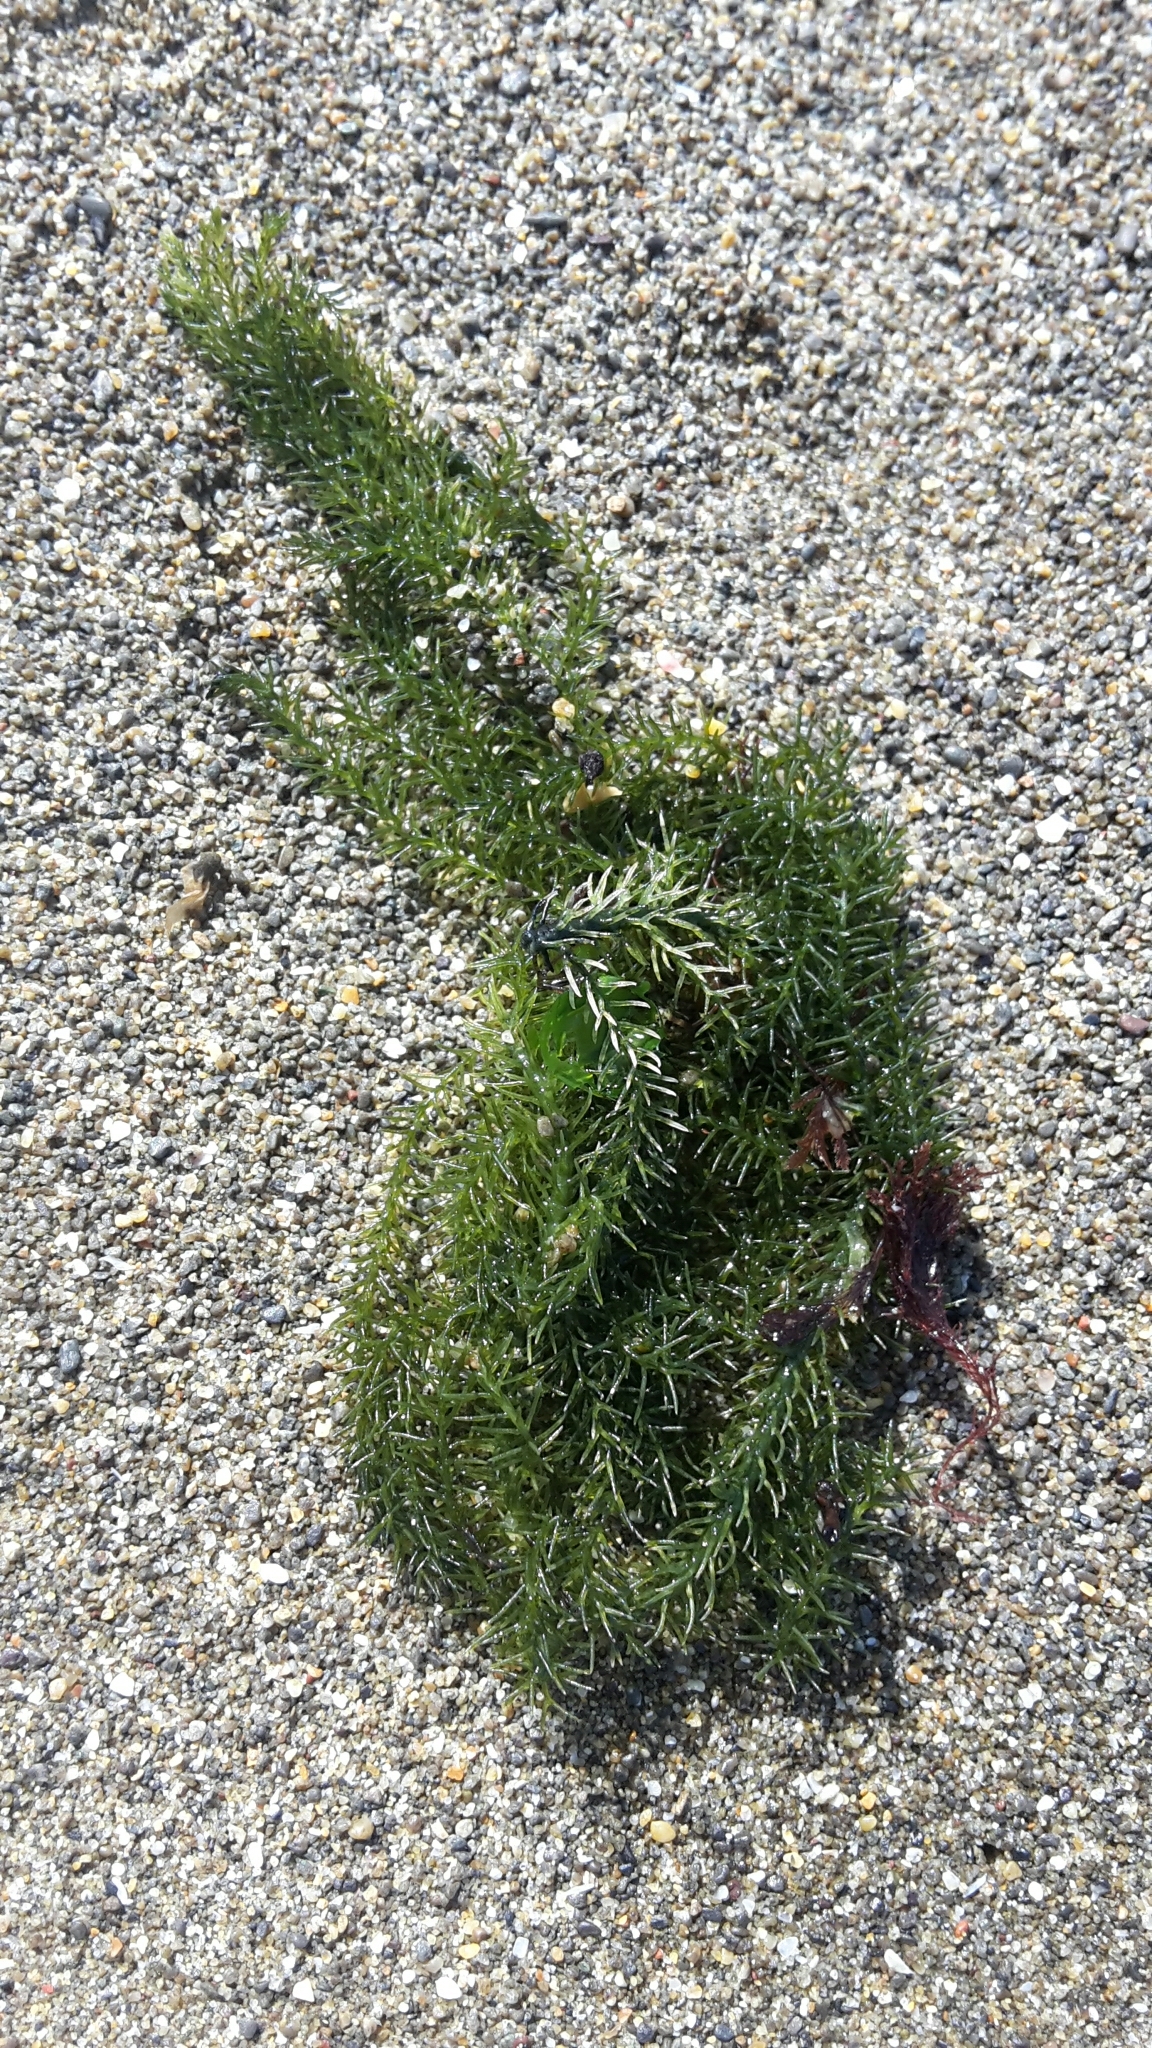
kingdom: Plantae
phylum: Chlorophyta
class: Ulvophyceae
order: Bryopsidales
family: Caulerpaceae
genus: Caulerpa
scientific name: Caulerpa brownii
